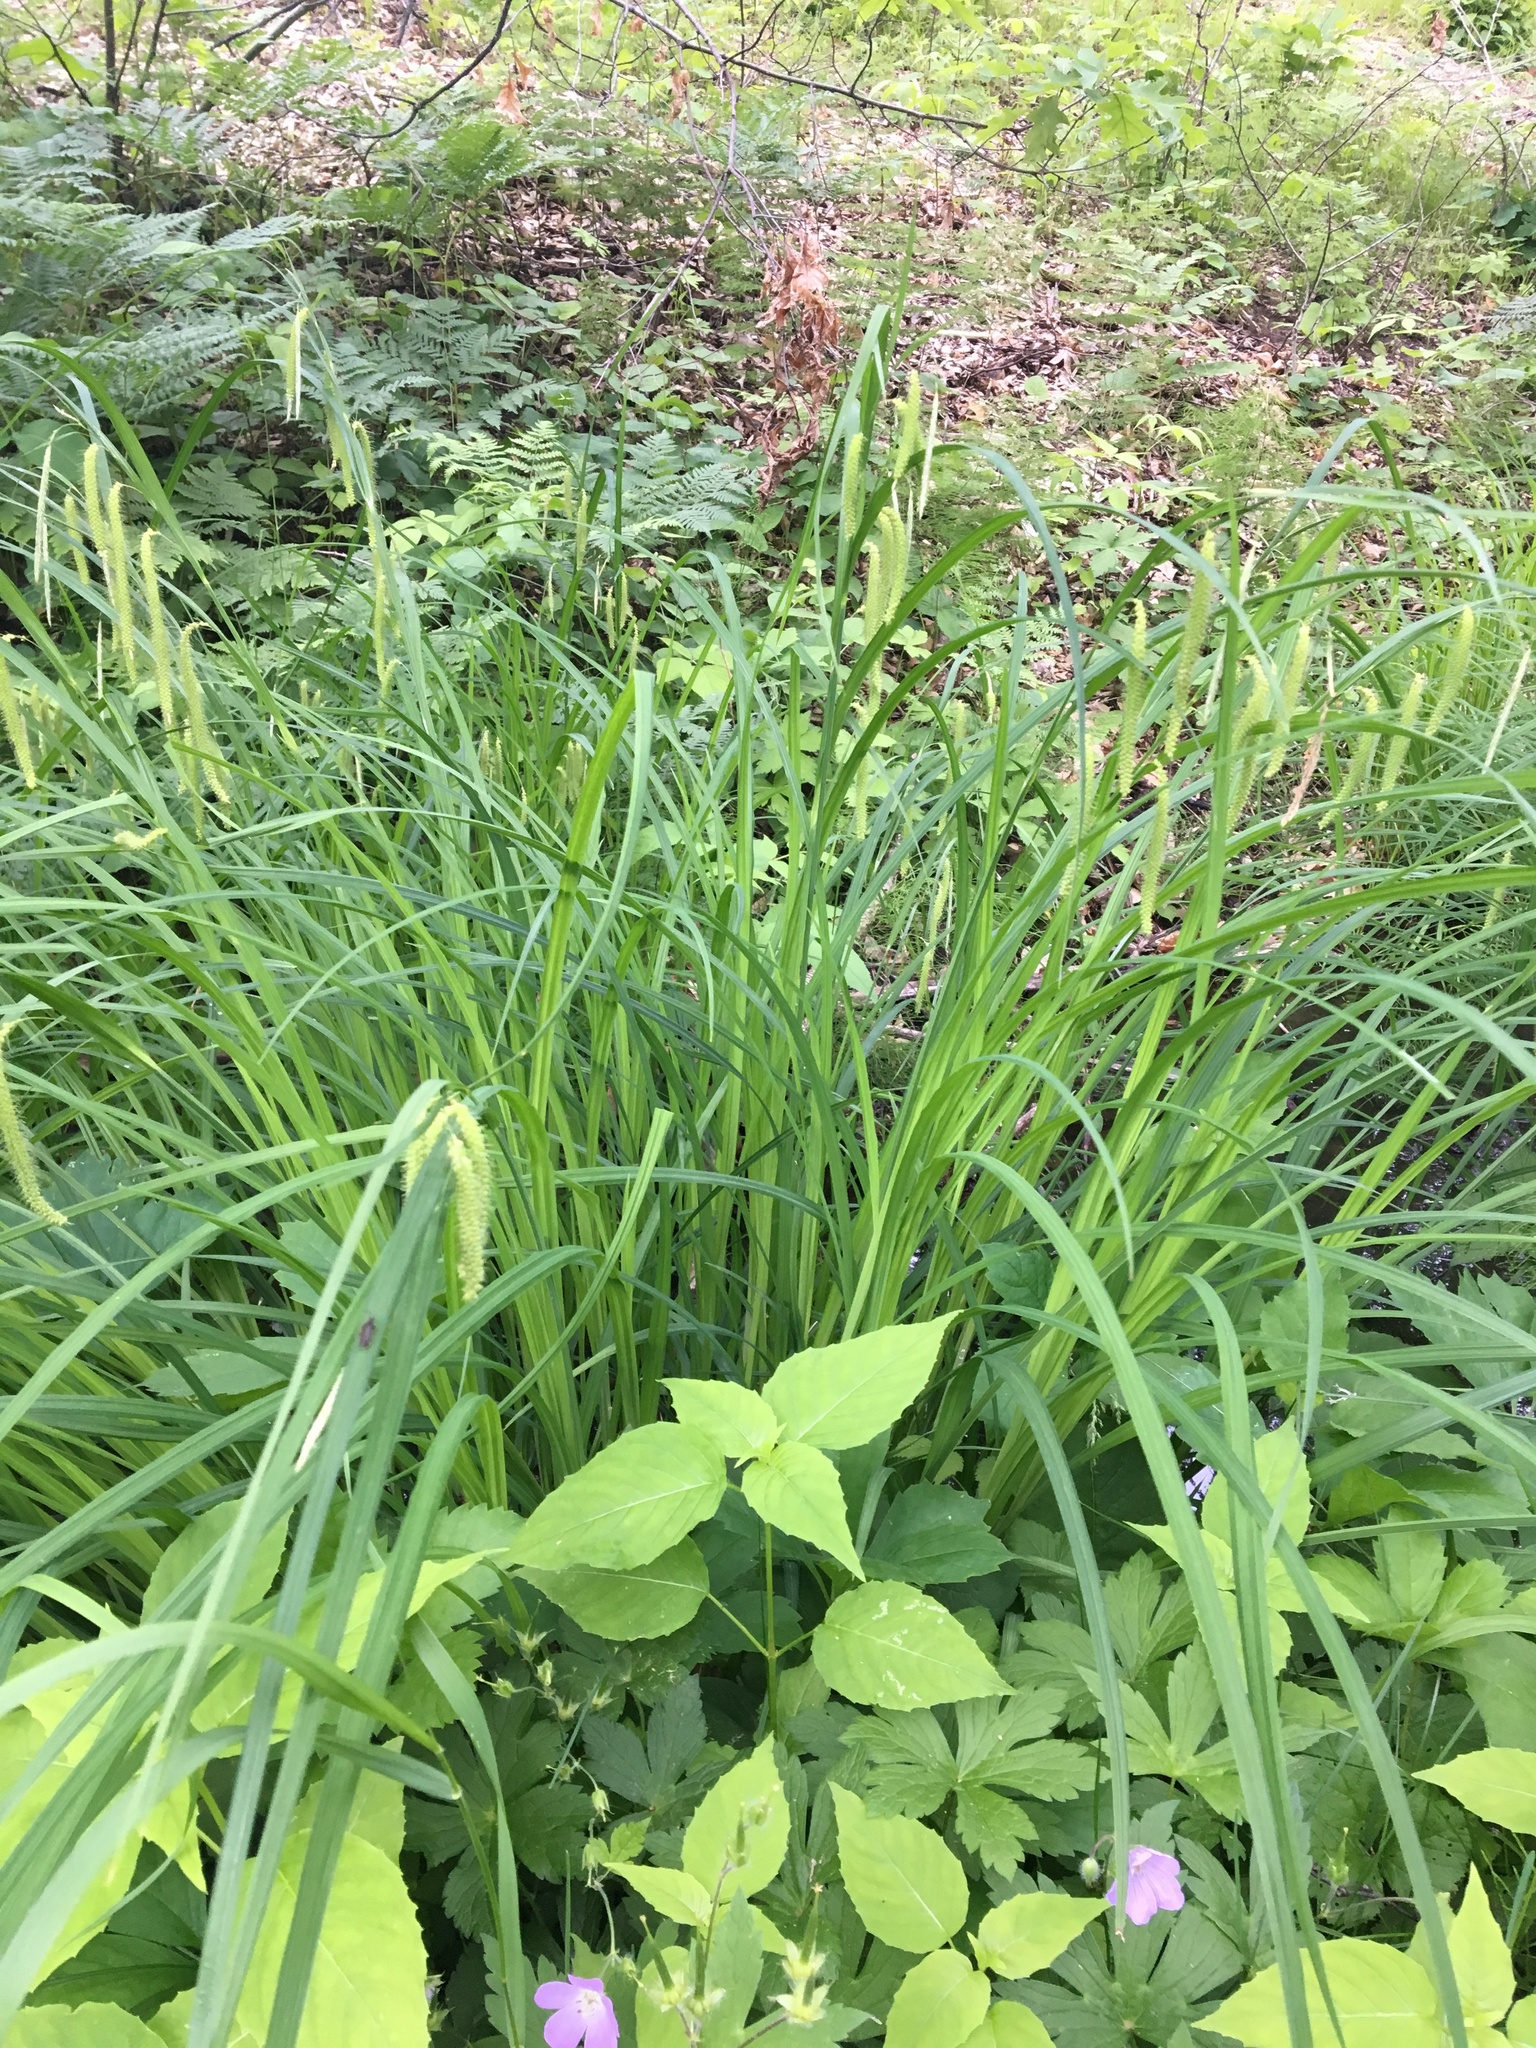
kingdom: Plantae
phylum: Tracheophyta
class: Liliopsida
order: Poales
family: Cyperaceae
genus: Carex
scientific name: Carex crinita
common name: Fringed sedge
